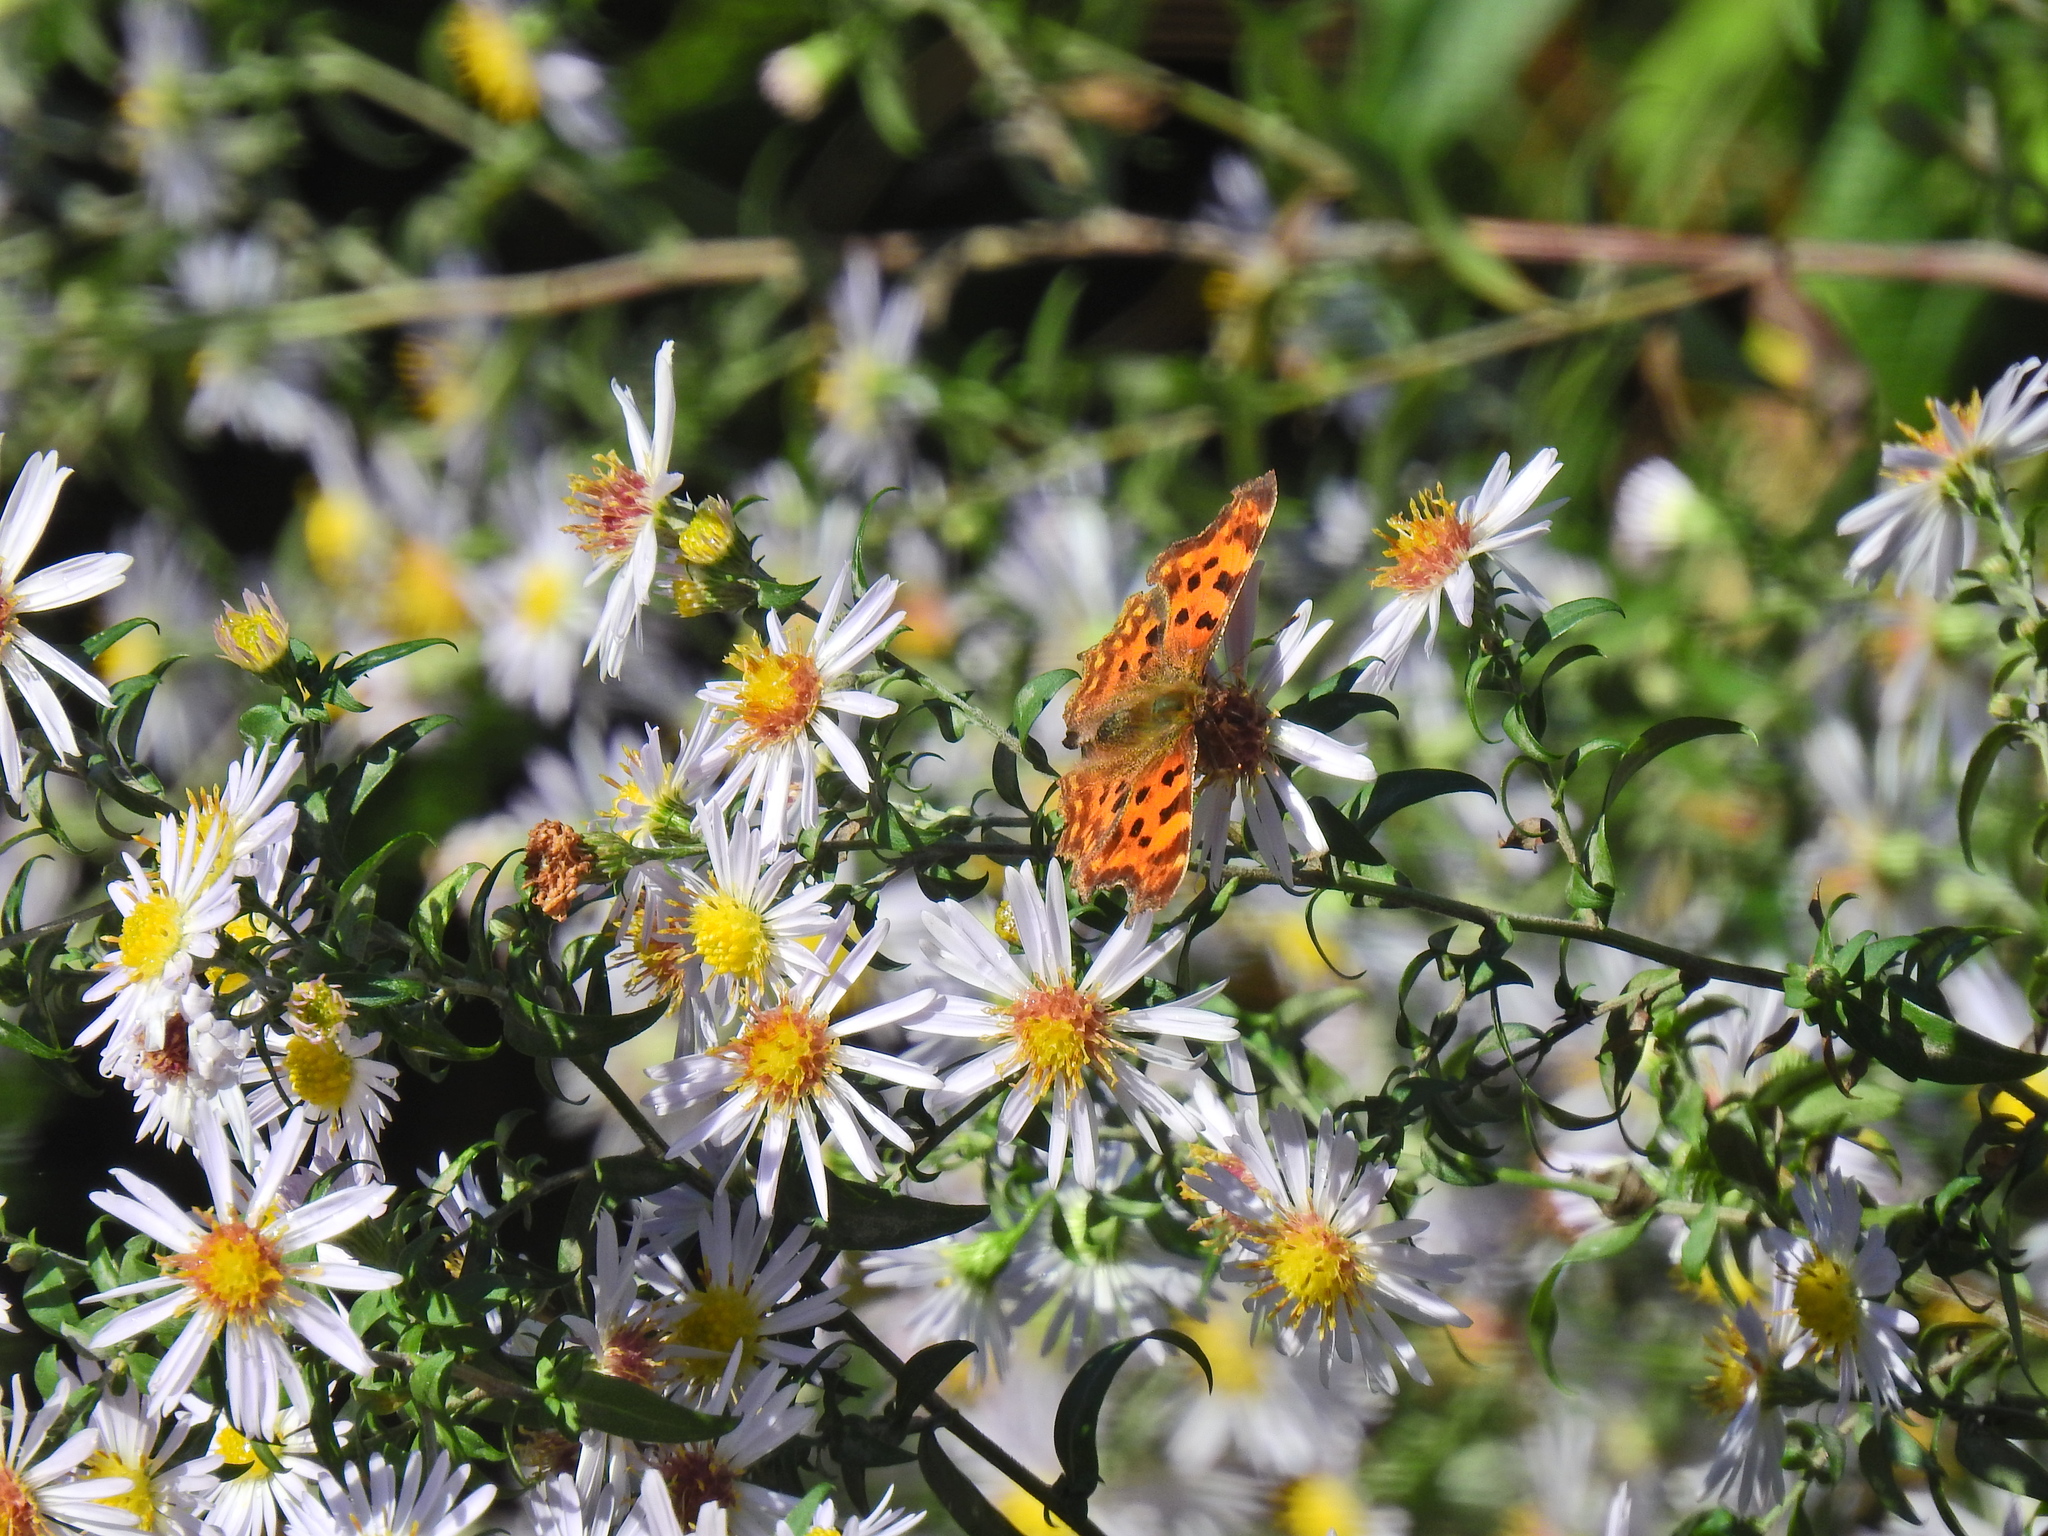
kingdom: Animalia
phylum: Arthropoda
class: Insecta
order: Lepidoptera
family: Nymphalidae
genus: Polygonia
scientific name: Polygonia c-album
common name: Comma
